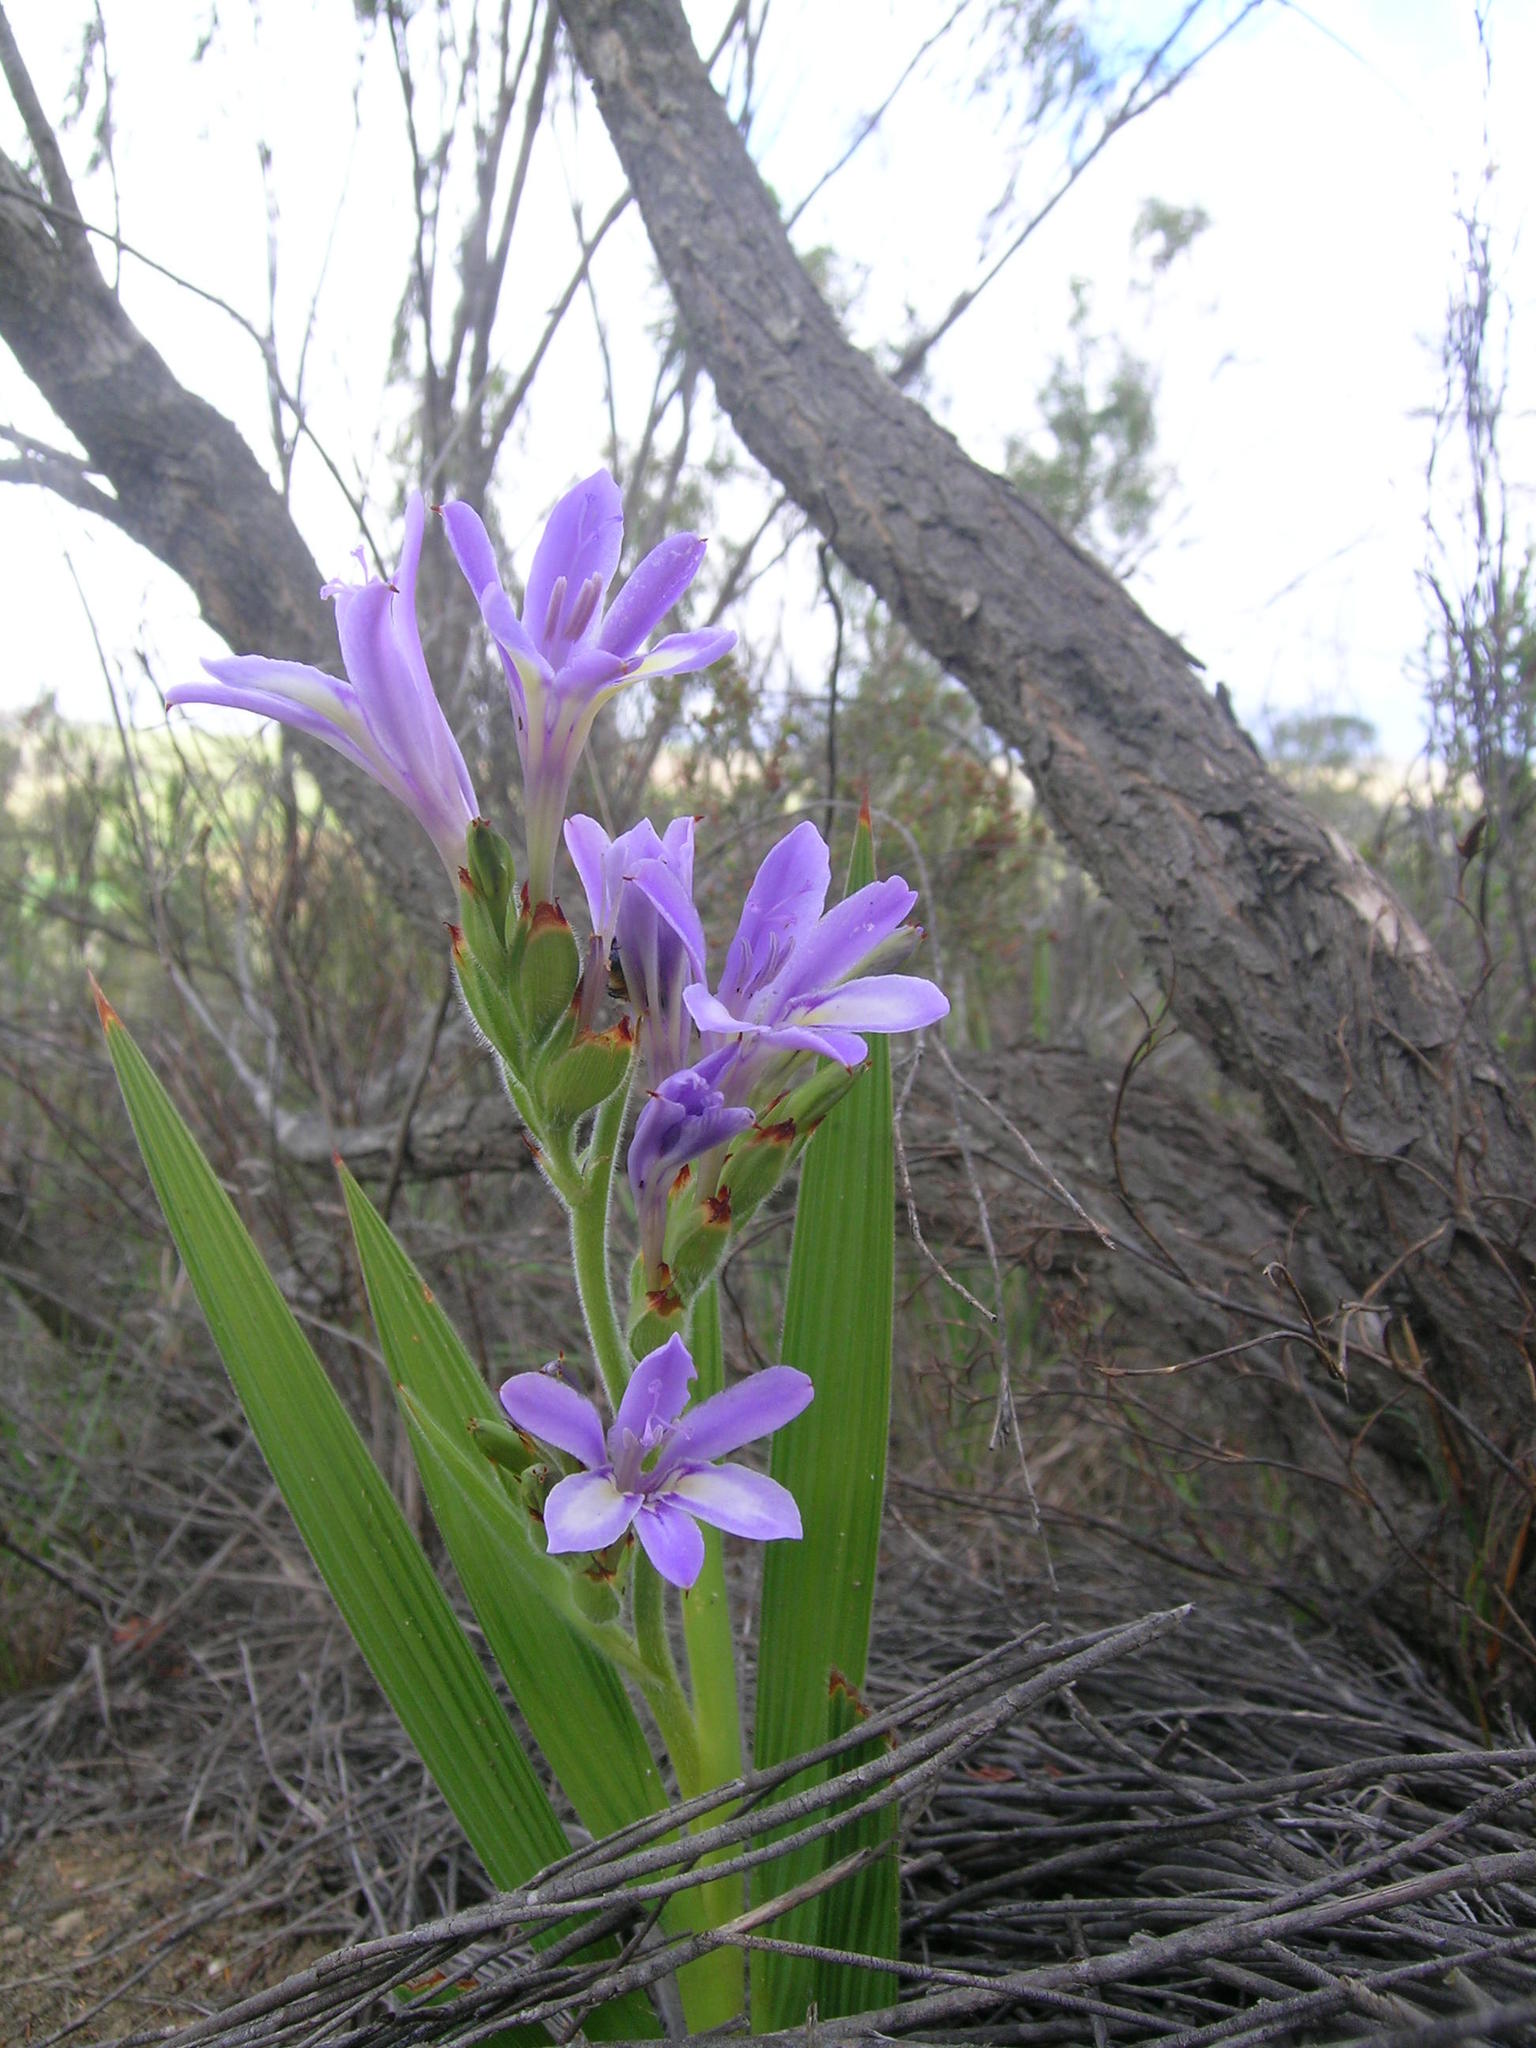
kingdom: Plantae
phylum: Tracheophyta
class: Liliopsida
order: Asparagales
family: Iridaceae
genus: Babiana
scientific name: Babiana fourcadei
